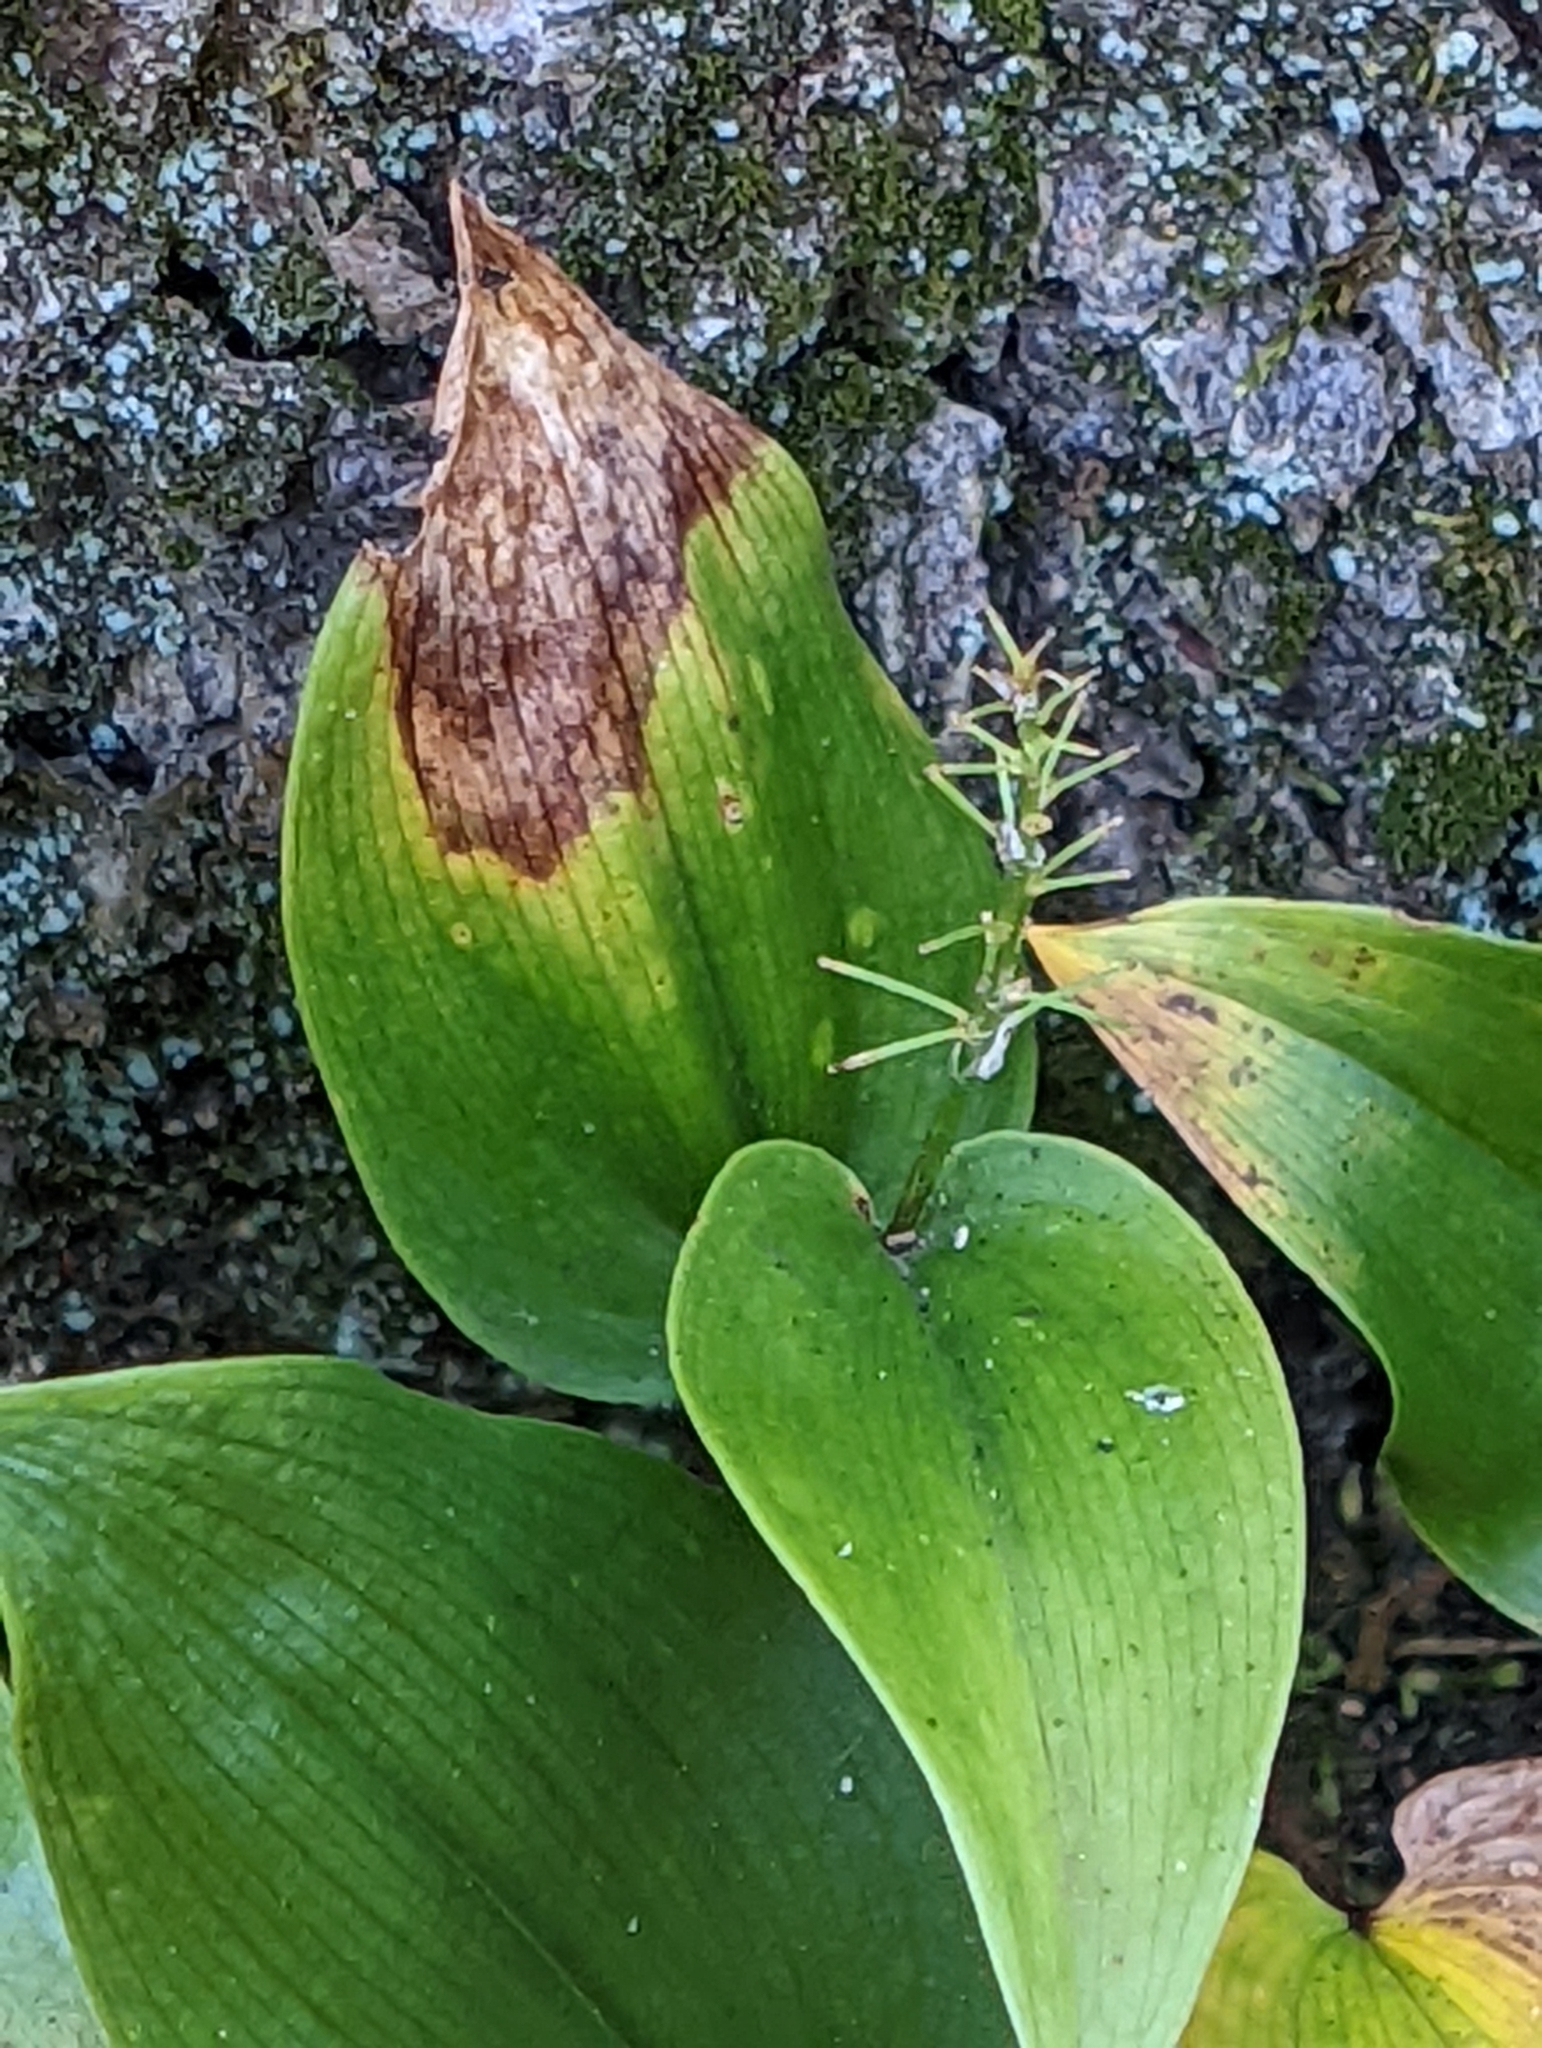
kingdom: Plantae
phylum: Tracheophyta
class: Liliopsida
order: Asparagales
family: Asparagaceae
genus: Maianthemum
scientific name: Maianthemum canadense
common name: False lily-of-the-valley
